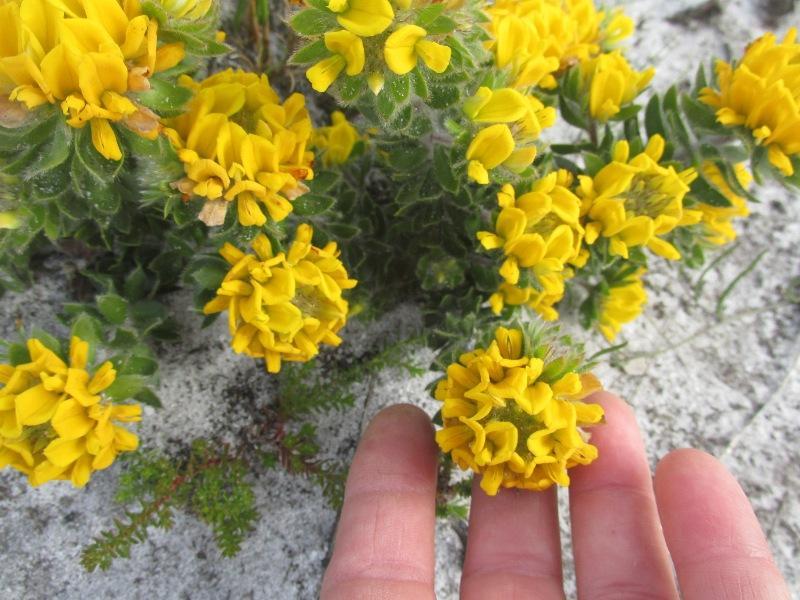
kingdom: Plantae
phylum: Tracheophyta
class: Magnoliopsida
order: Fabales
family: Fabaceae
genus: Aspalathus
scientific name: Aspalathus aspalathoides
